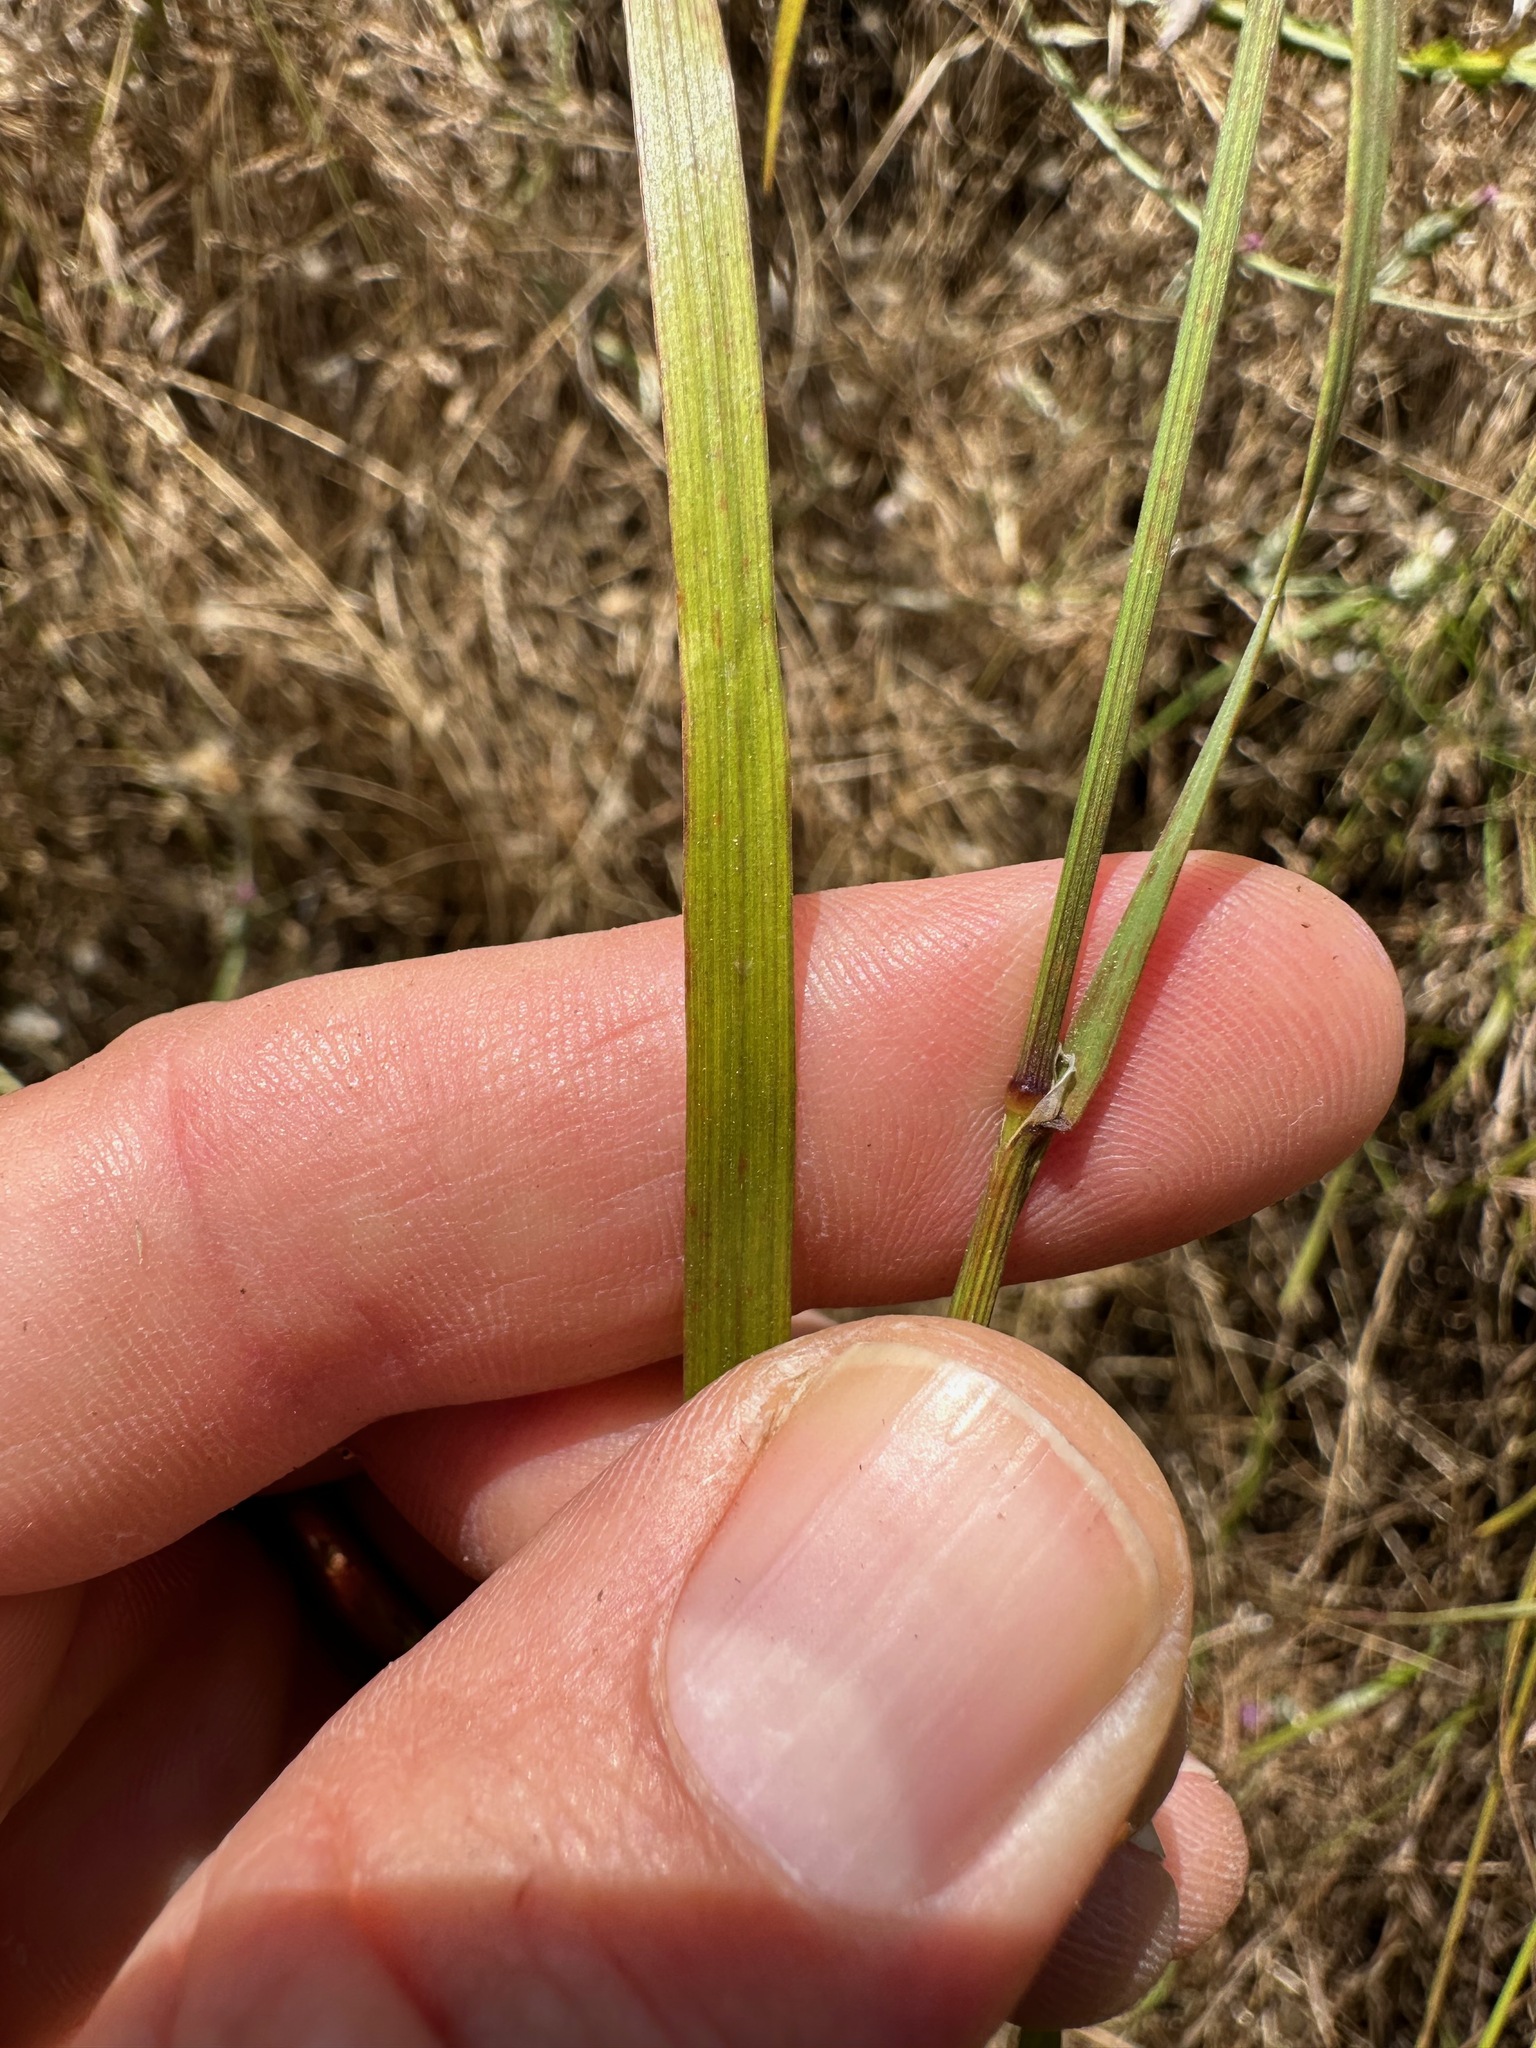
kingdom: Plantae
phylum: Tracheophyta
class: Liliopsida
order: Poales
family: Poaceae
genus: Melica
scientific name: Melica imperfecta
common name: California melic
